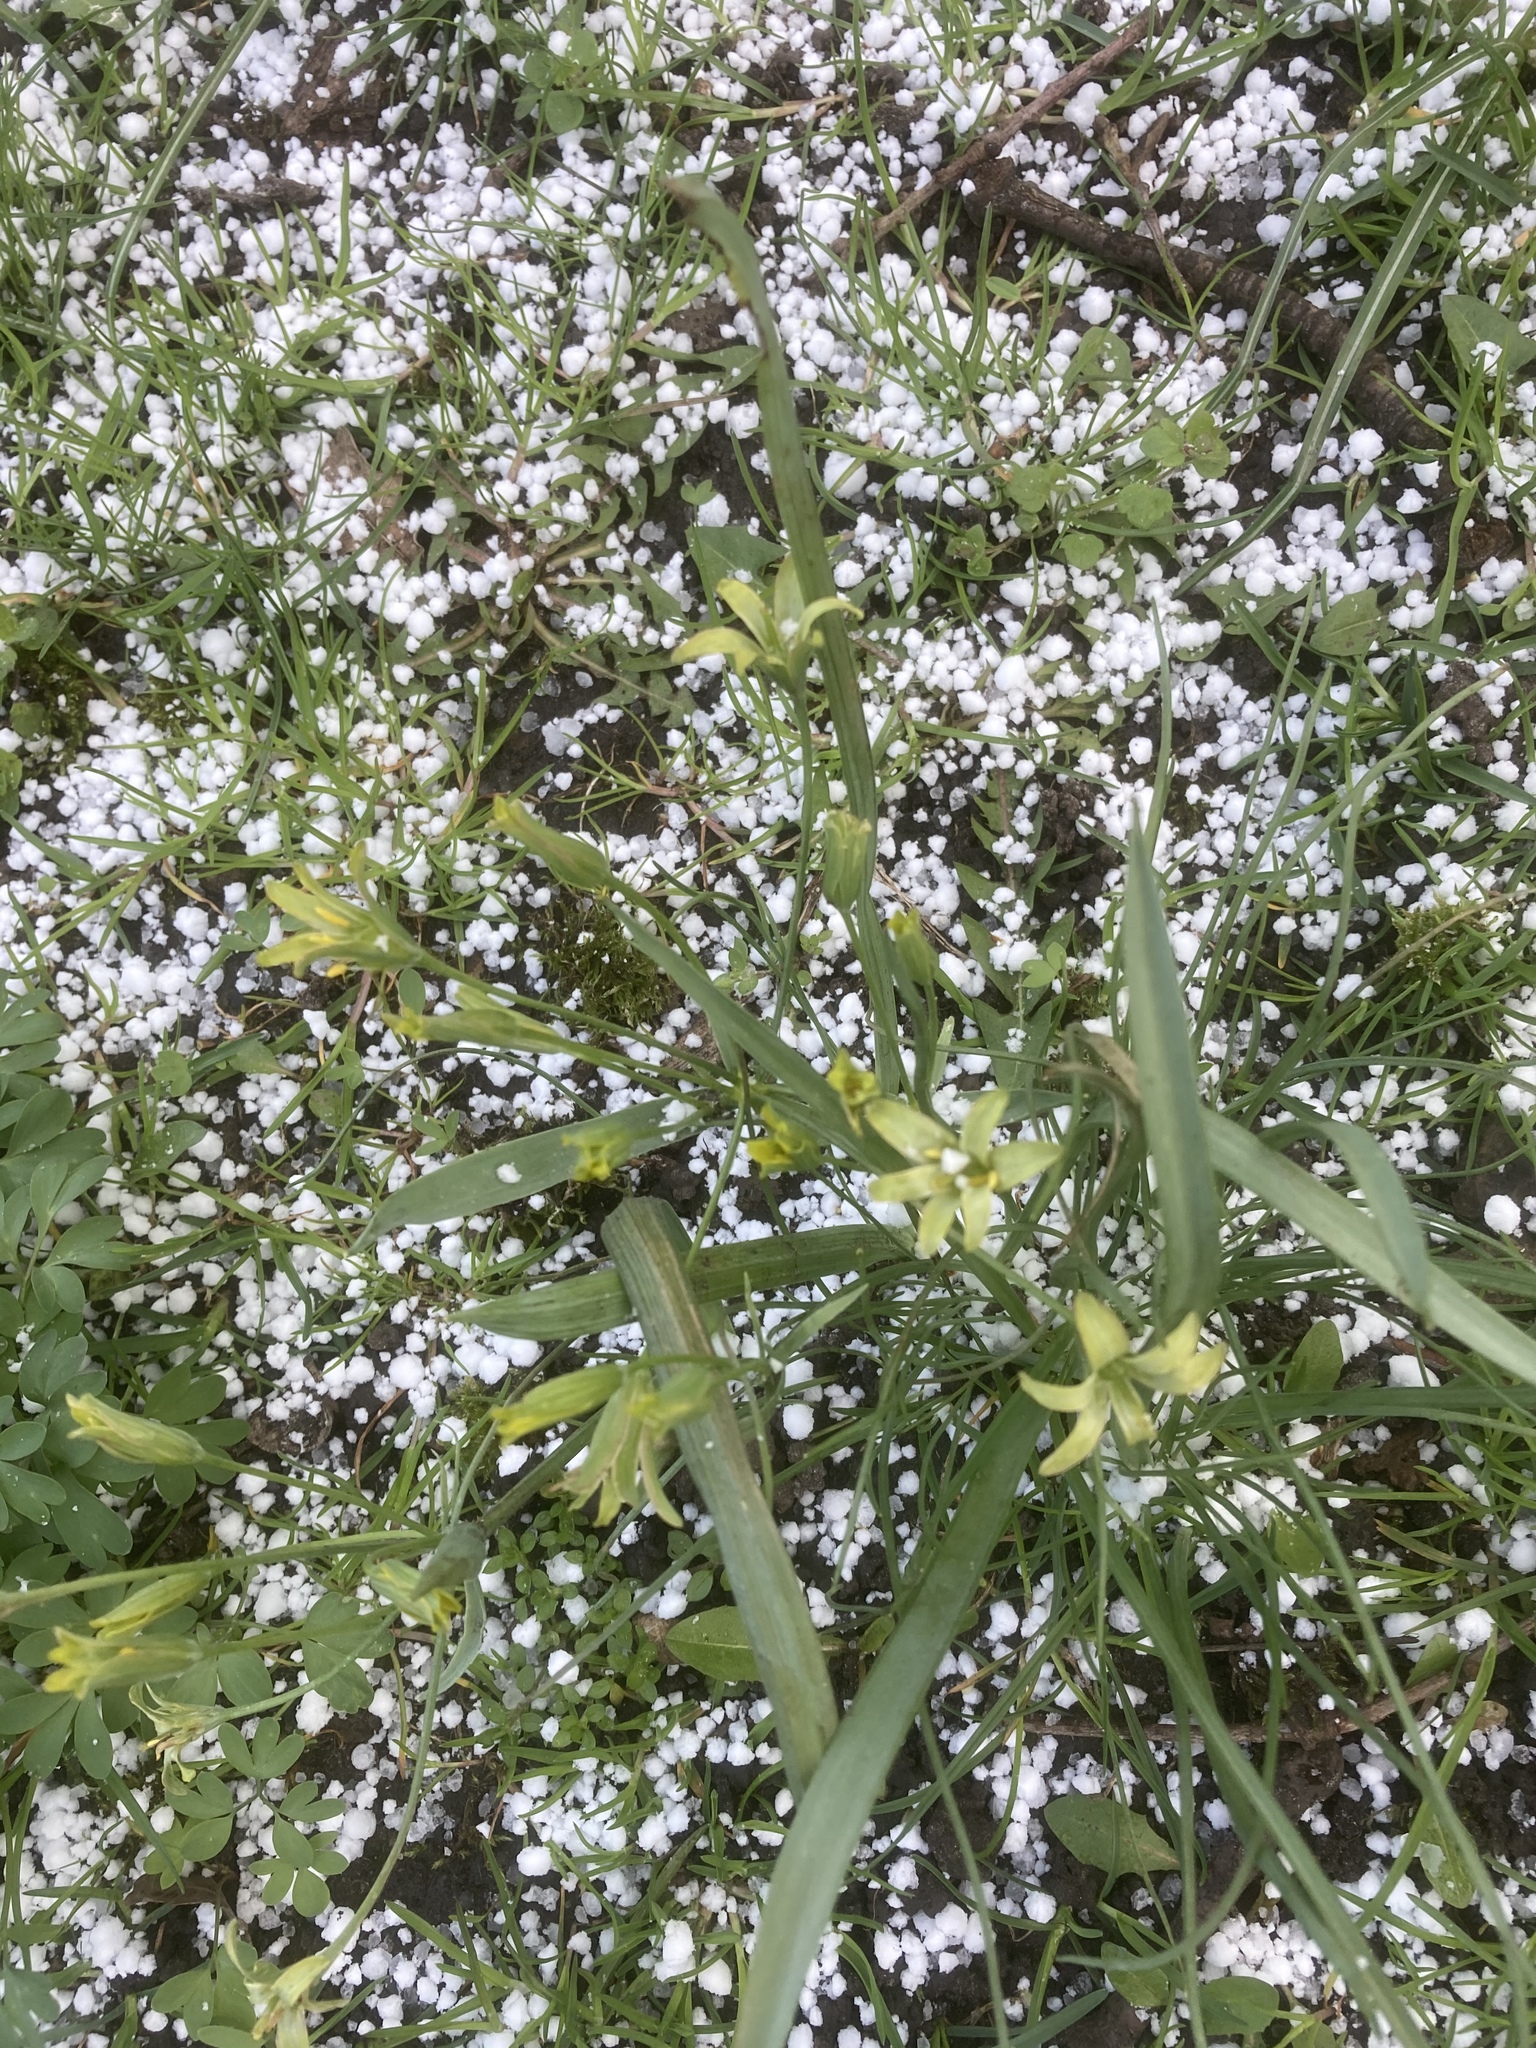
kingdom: Plantae
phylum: Tracheophyta
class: Liliopsida
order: Liliales
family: Liliaceae
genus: Gagea
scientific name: Gagea lutea
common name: Yellow star-of-bethlehem
